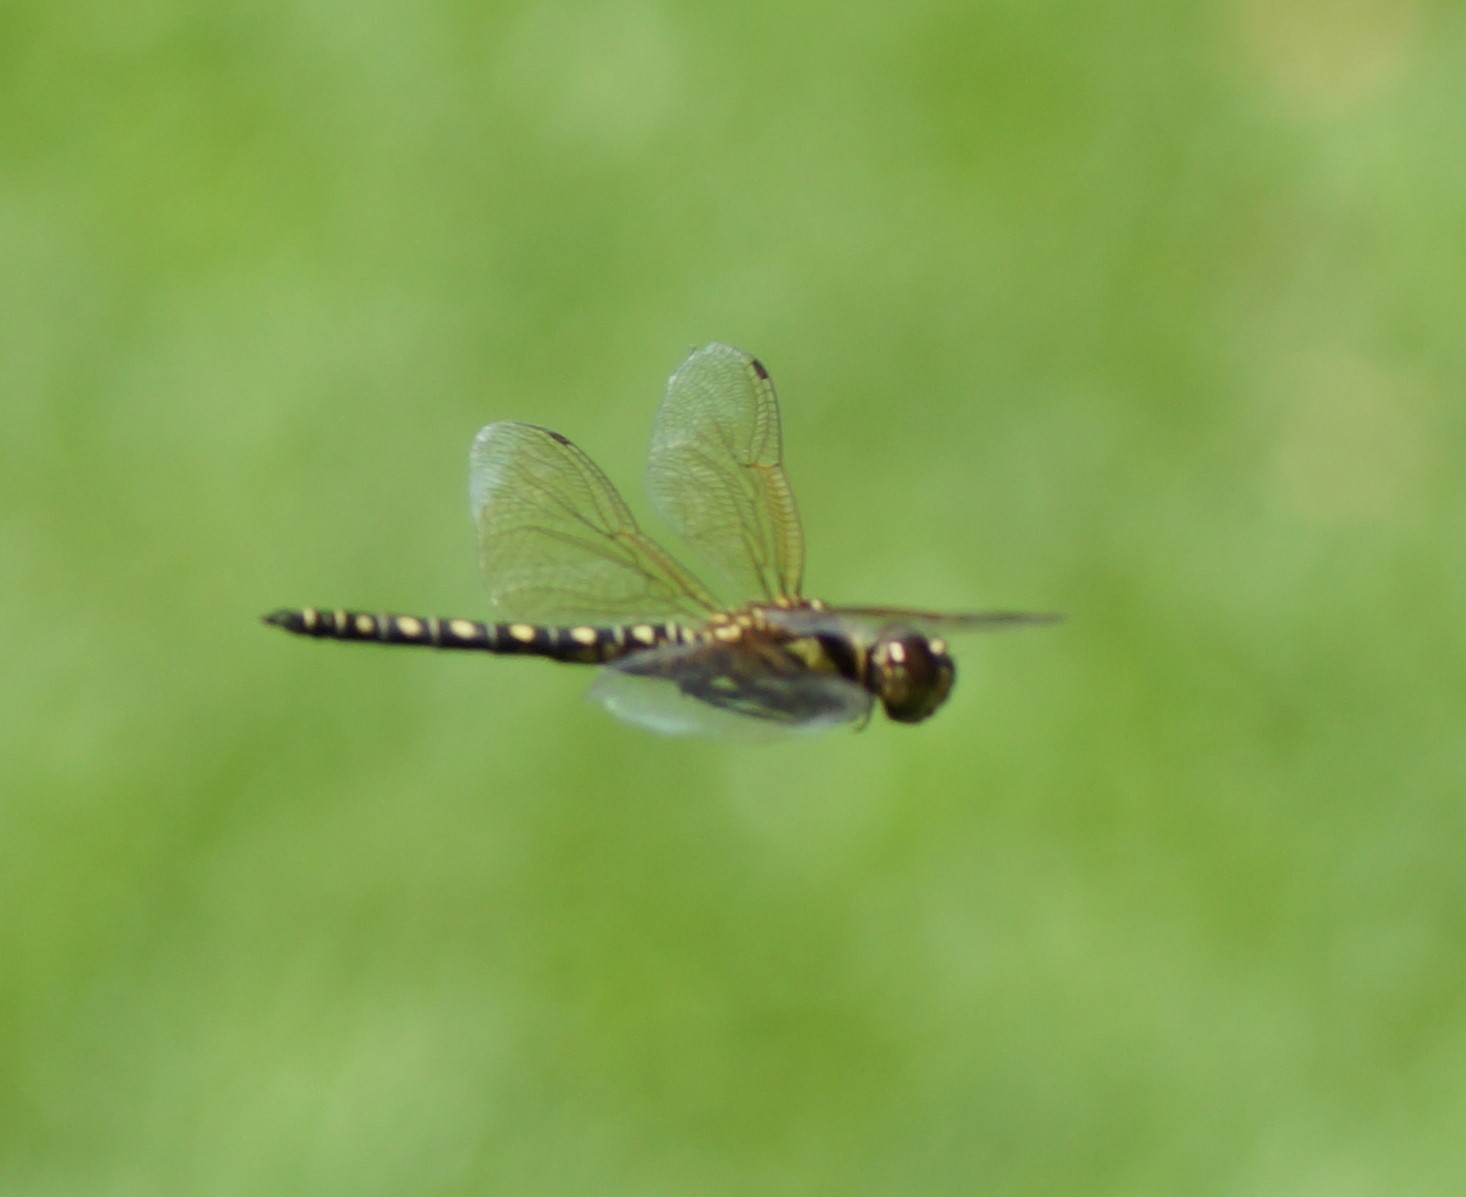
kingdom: Animalia
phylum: Arthropoda
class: Insecta
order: Odonata
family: Libellulidae
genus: Hydrobasileus
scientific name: Hydrobasileus brevistylus
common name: Water prince
